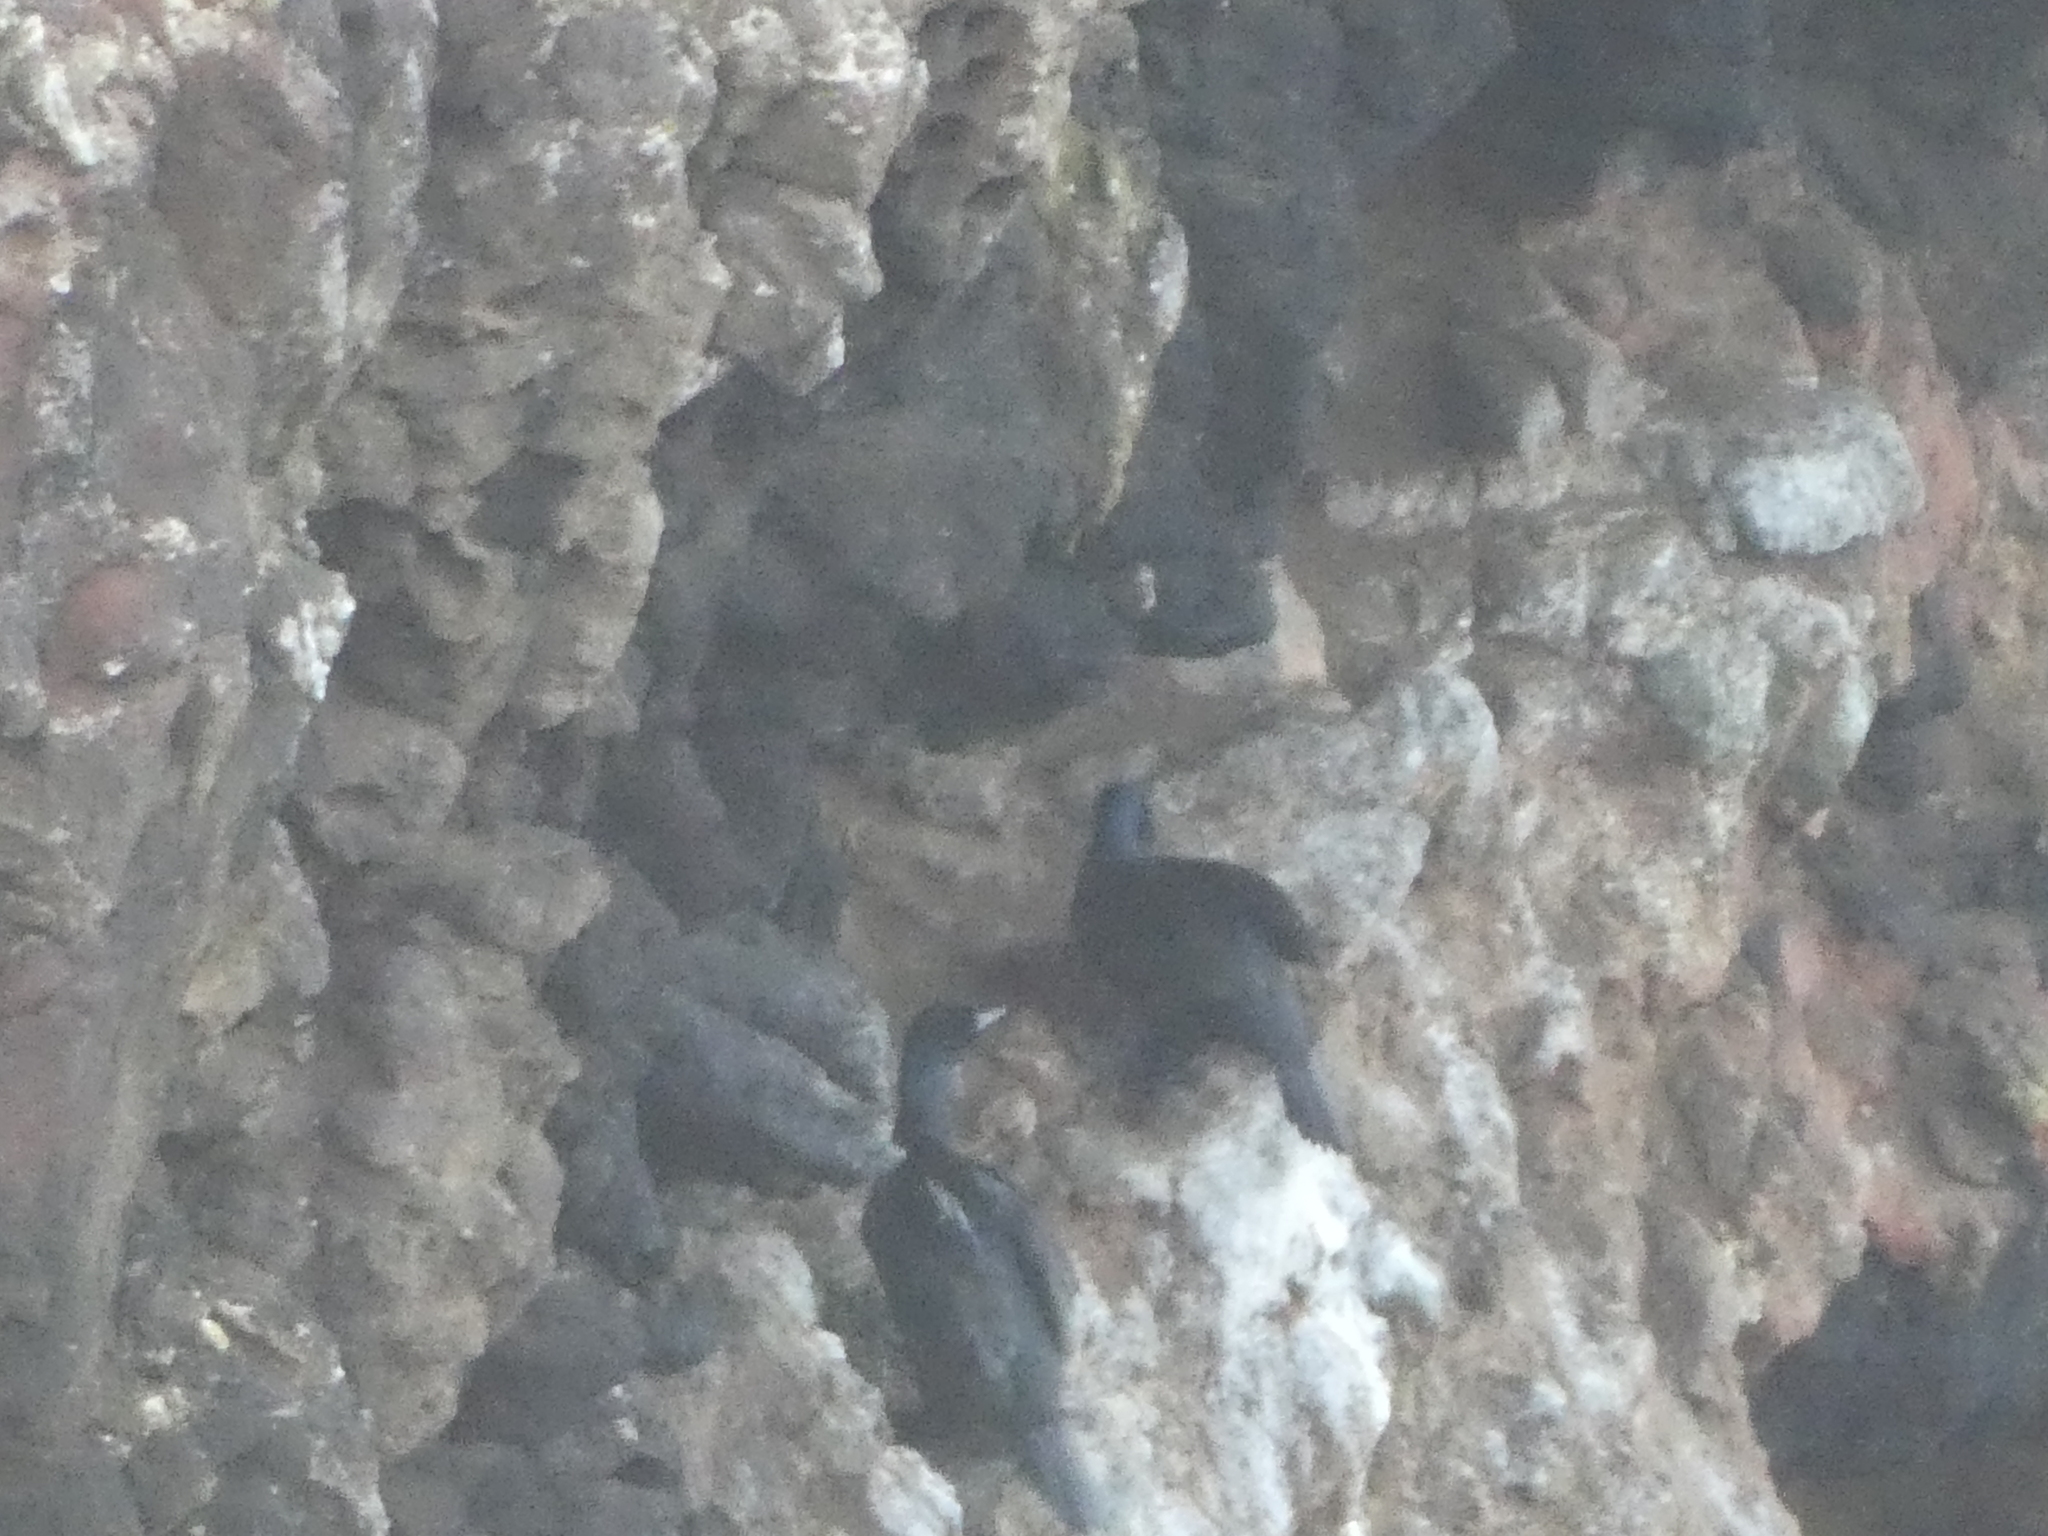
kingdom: Animalia
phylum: Chordata
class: Aves
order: Suliformes
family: Phalacrocoracidae
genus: Phalacrocorax
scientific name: Phalacrocorax pelagicus
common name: Pelagic cormorant
